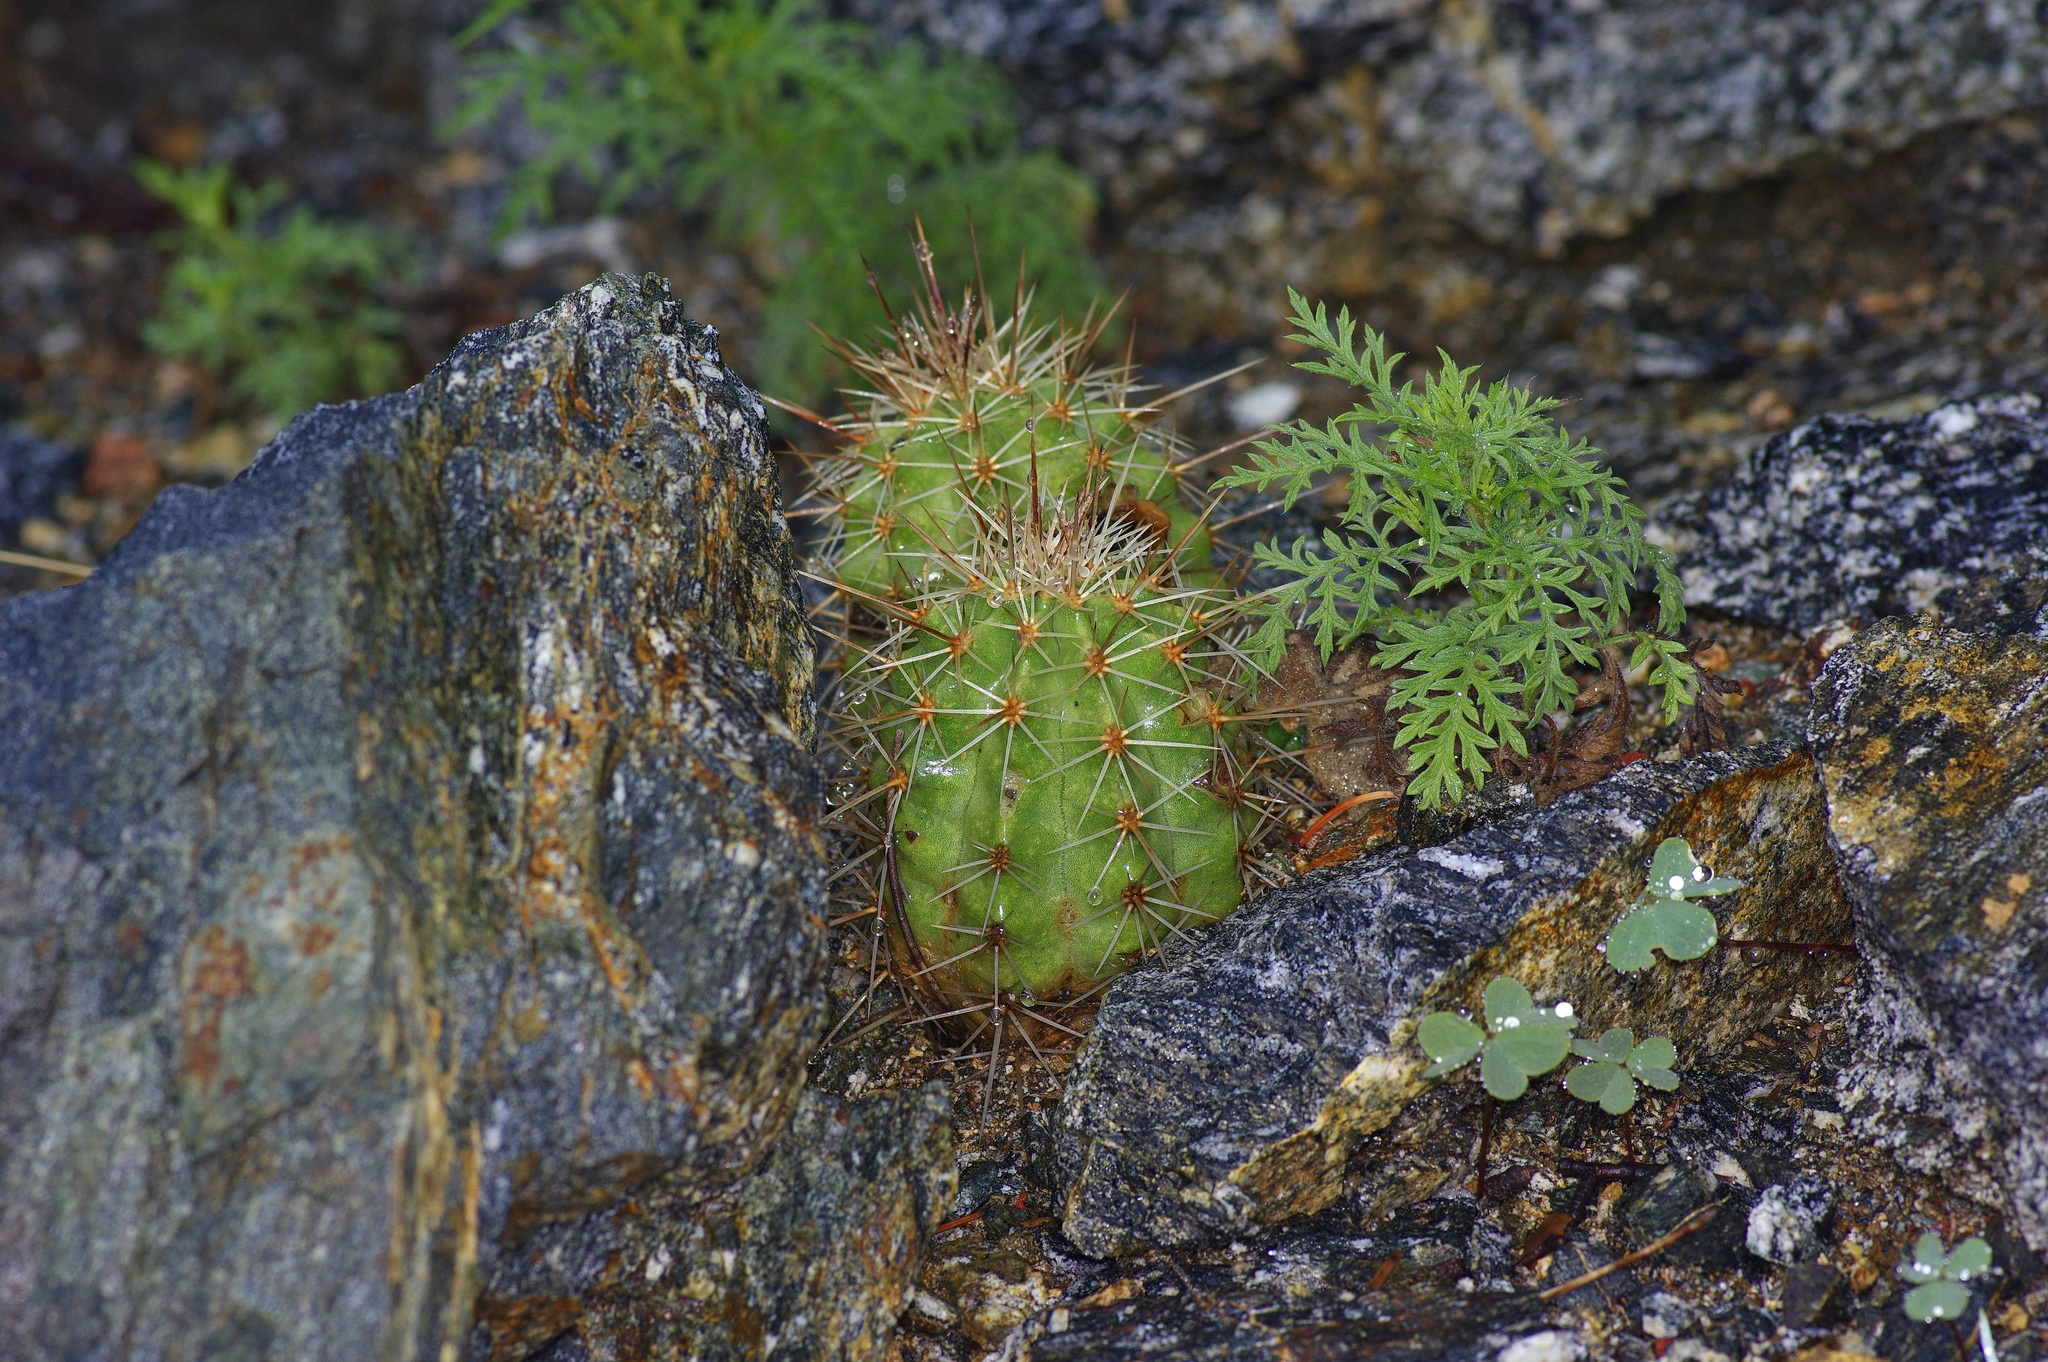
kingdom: Plantae
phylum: Tracheophyta
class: Magnoliopsida
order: Caryophyllales
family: Cactaceae
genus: Echinocereus
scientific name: Echinocereus coccineus
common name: Scarlet hedgehog cactus
